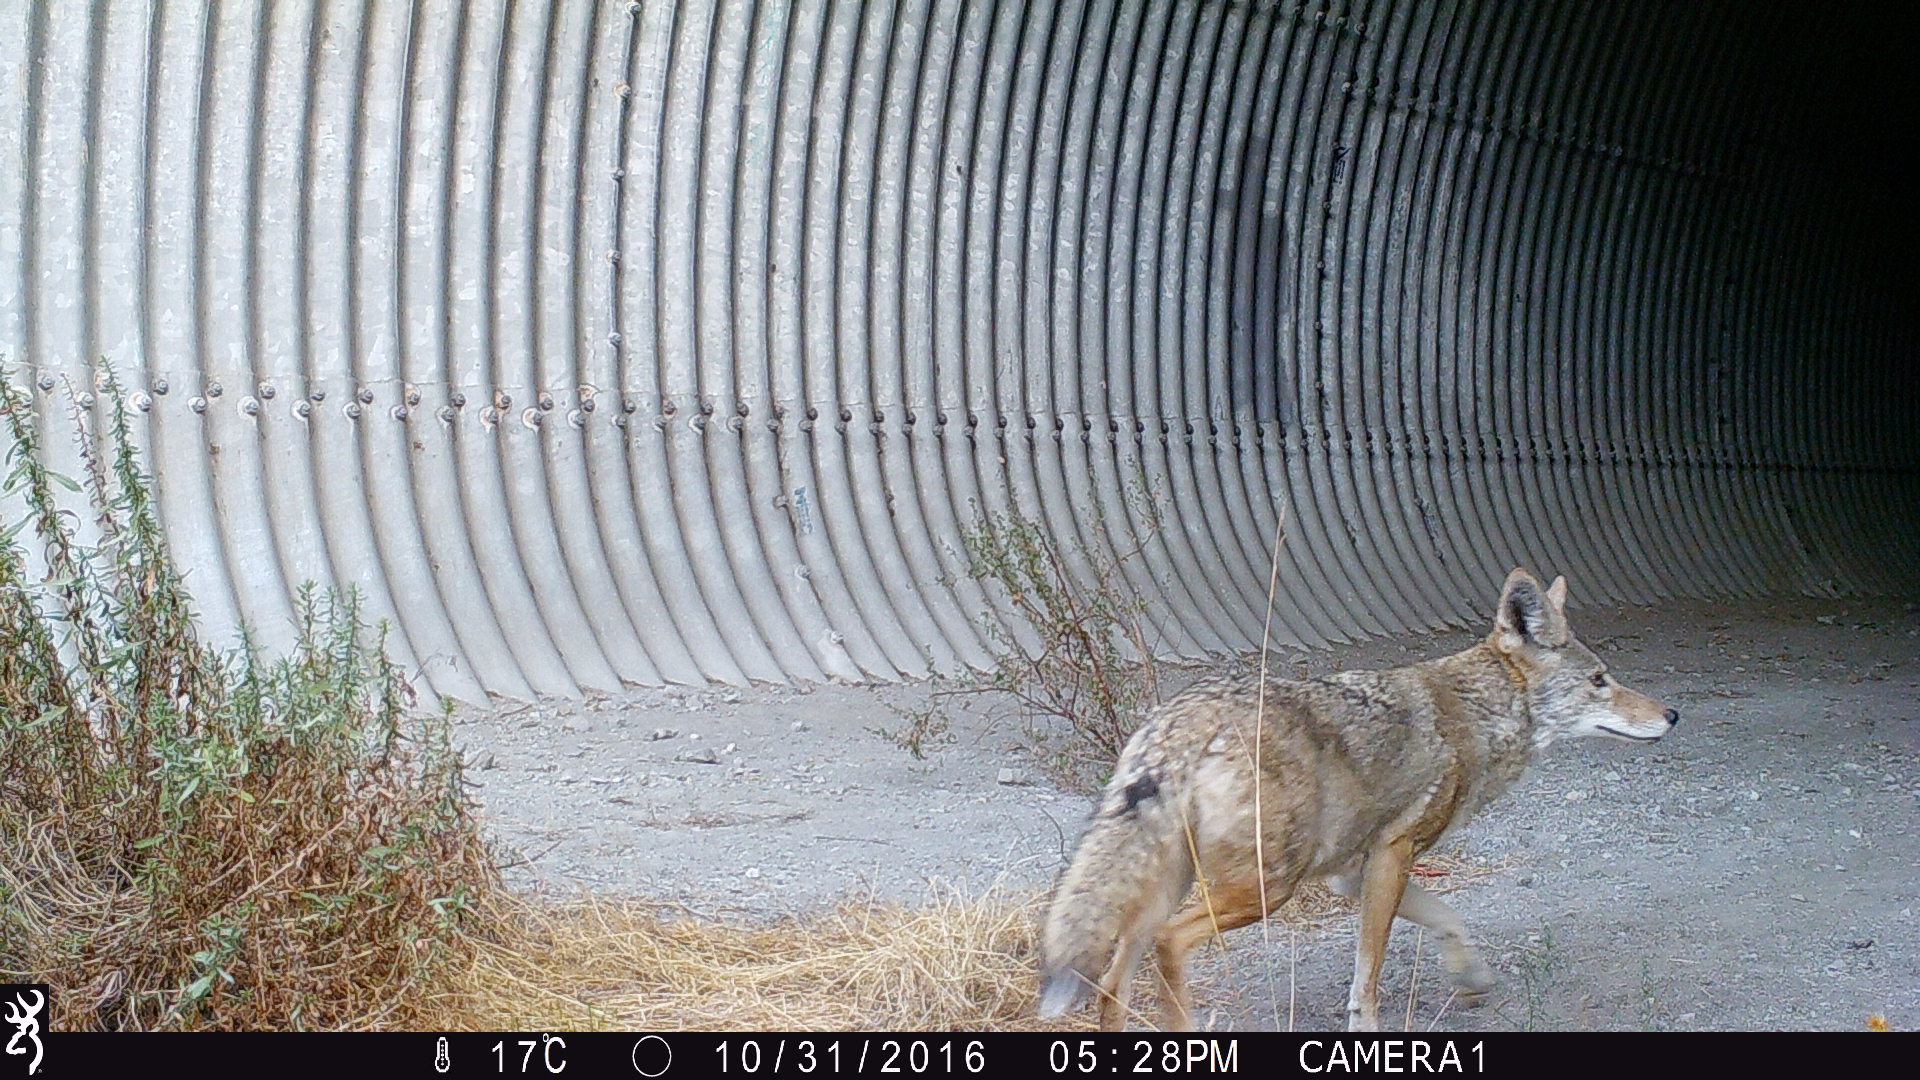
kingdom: Animalia
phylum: Chordata
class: Mammalia
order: Carnivora
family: Canidae
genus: Canis
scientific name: Canis latrans
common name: Coyote
